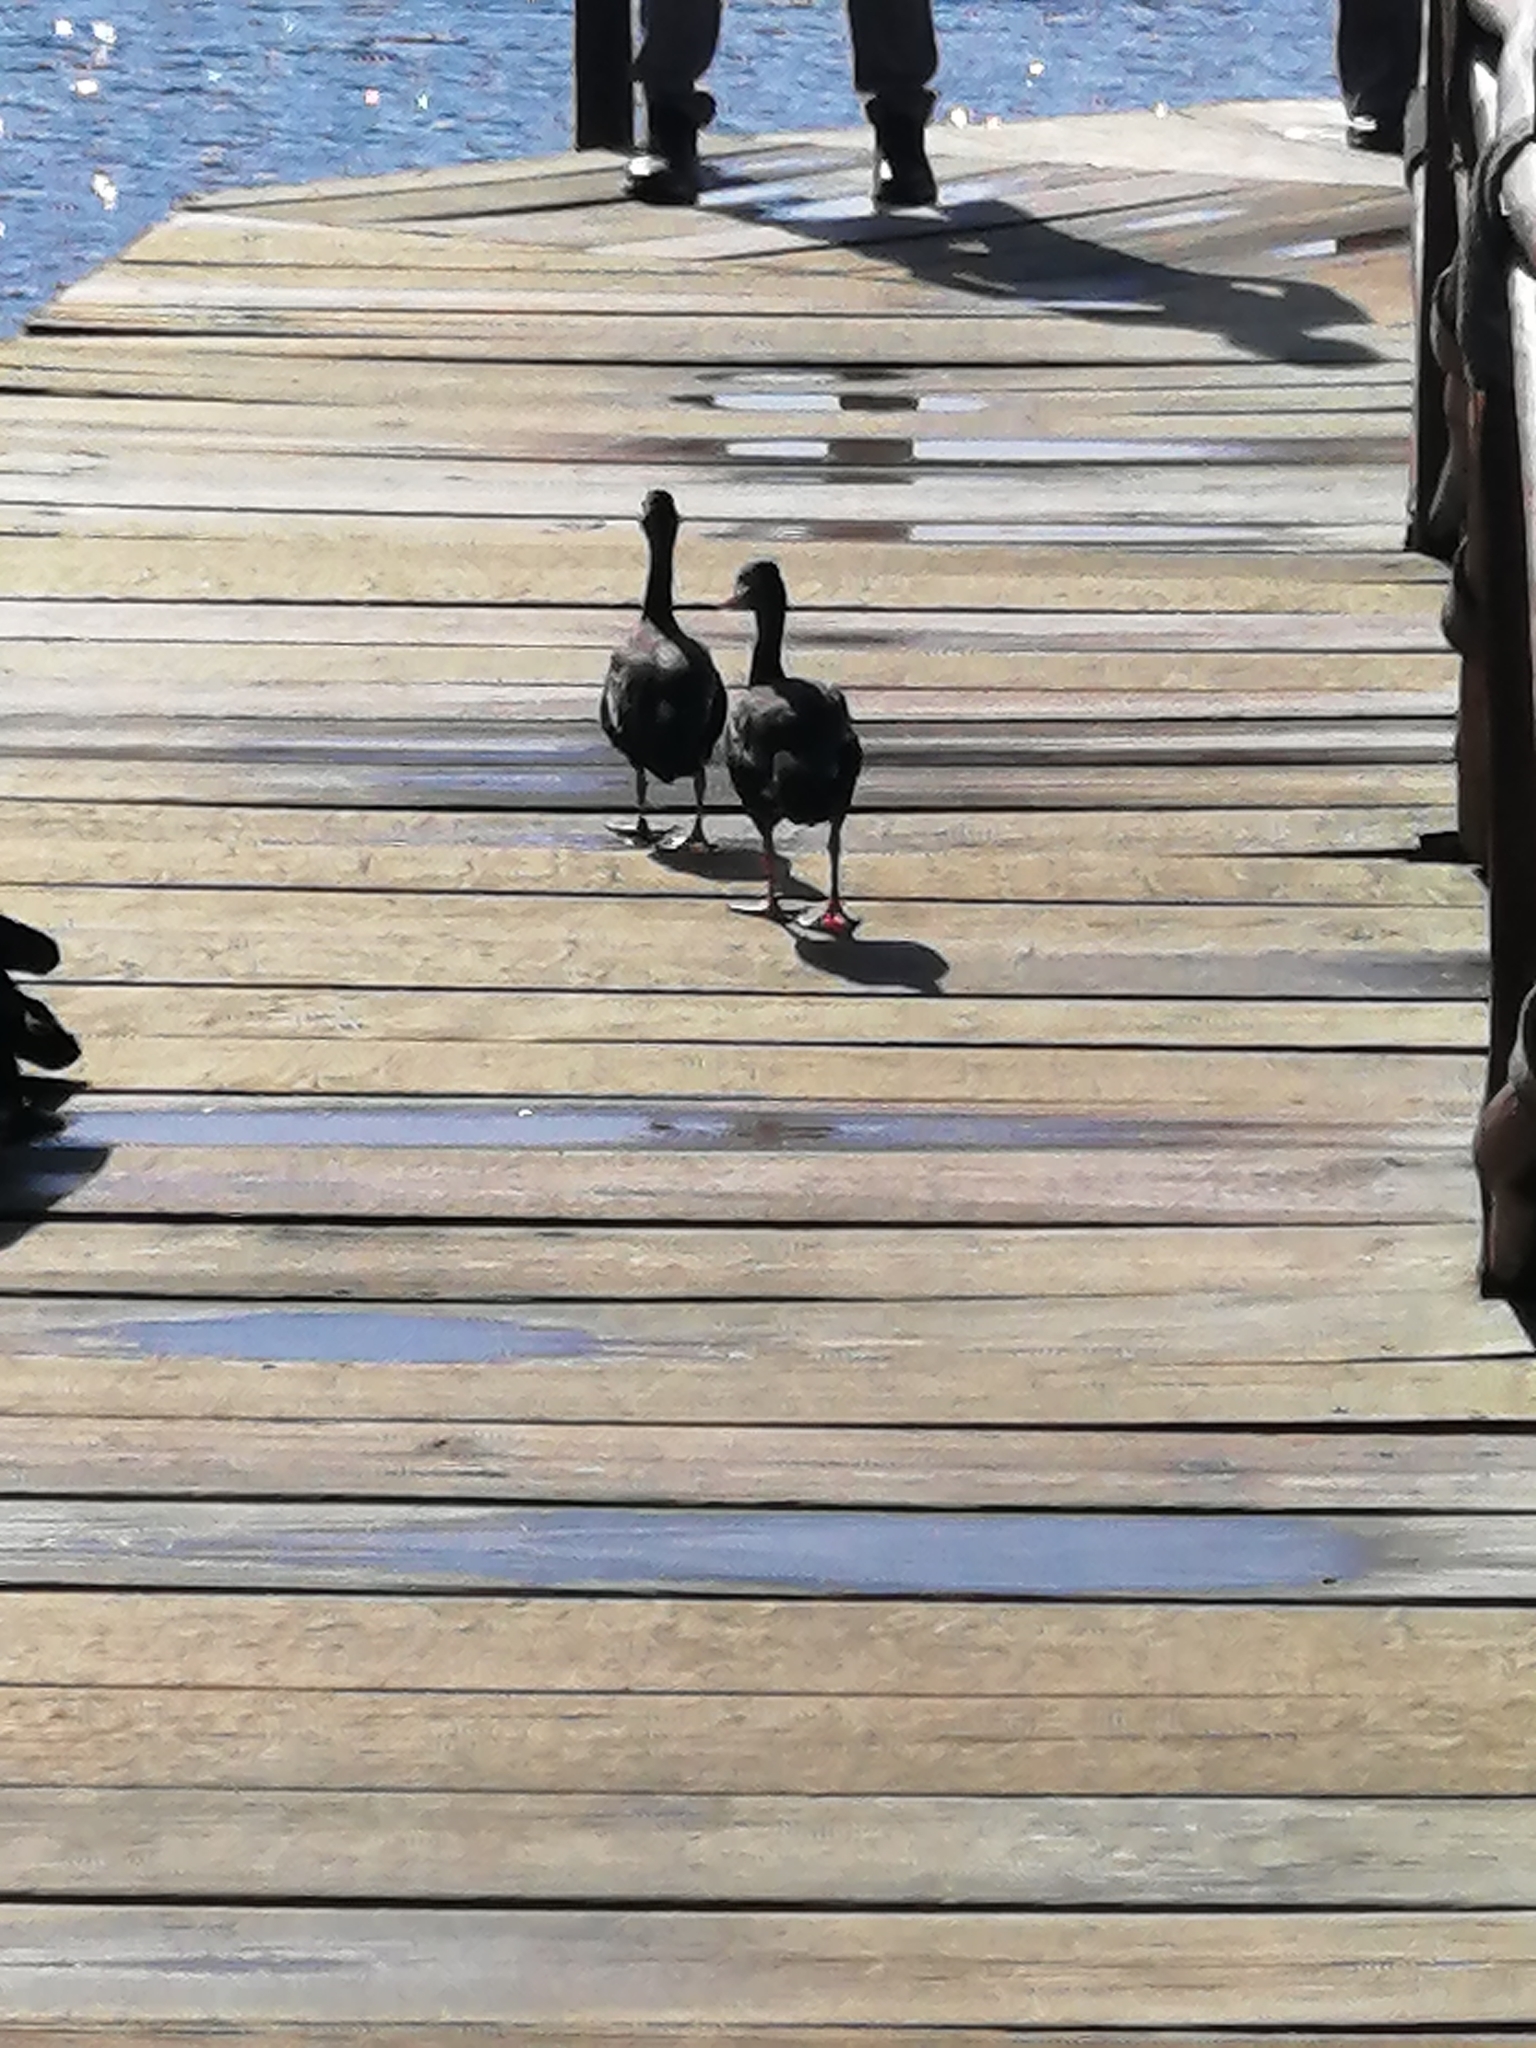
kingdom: Animalia
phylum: Chordata
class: Aves
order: Anseriformes
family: Anatidae
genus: Dendrocygna
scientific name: Dendrocygna autumnalis
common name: Black-bellied whistling duck
